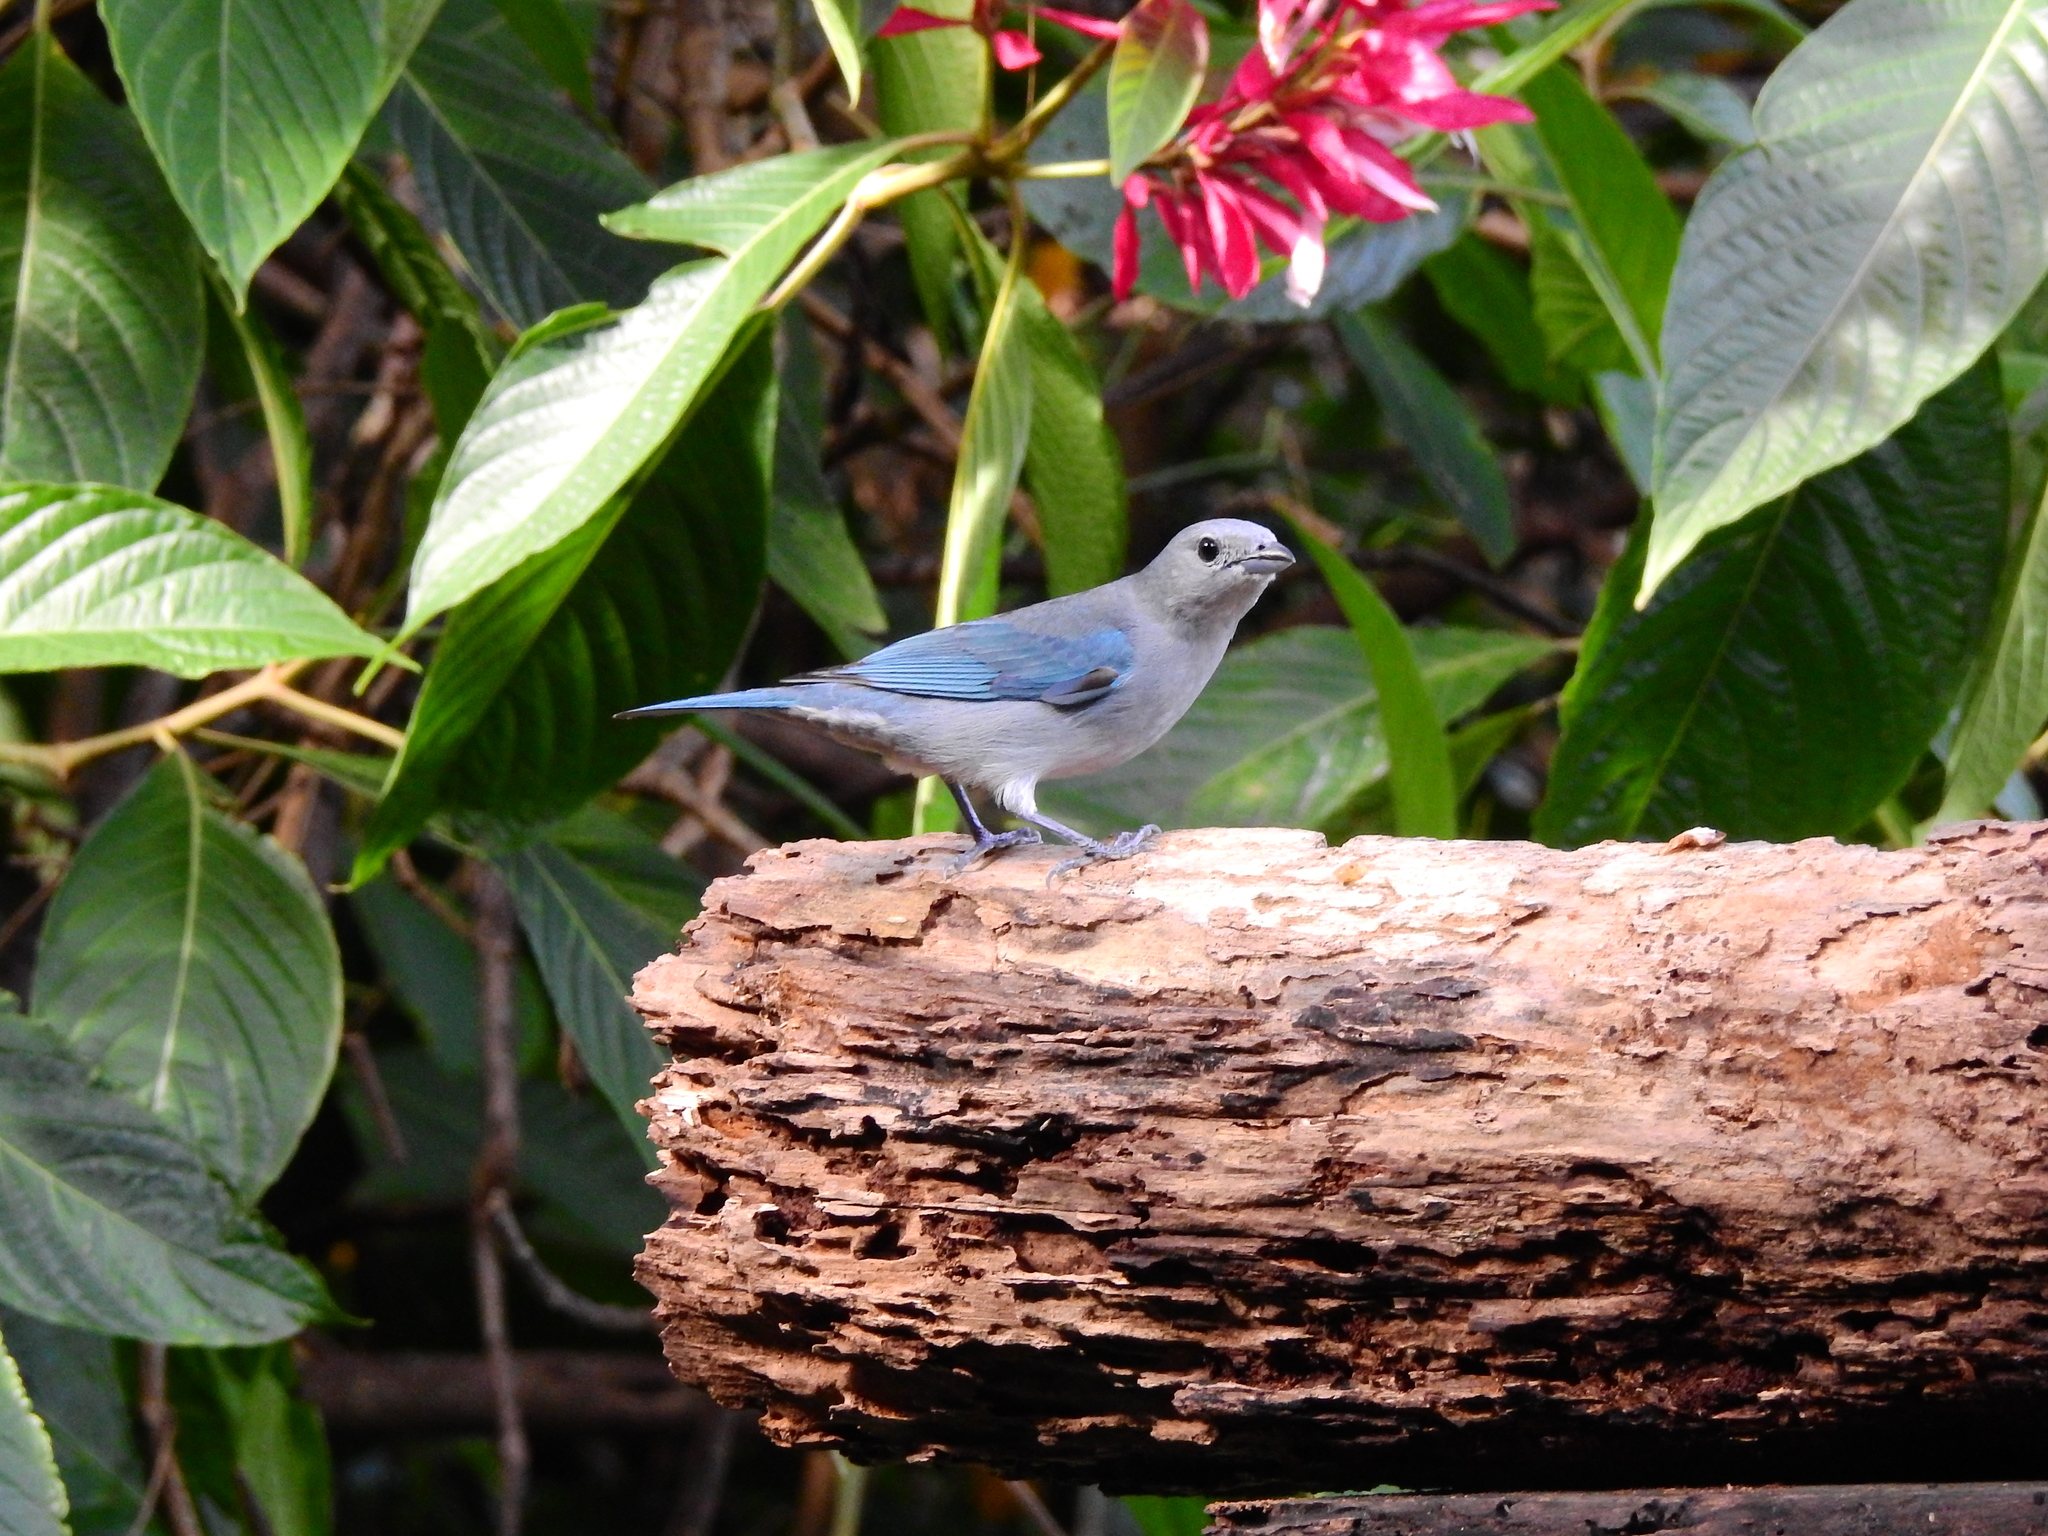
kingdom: Animalia
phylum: Chordata
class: Aves
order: Passeriformes
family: Thraupidae
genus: Thraupis
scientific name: Thraupis sayaca
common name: Sayaca tanager
